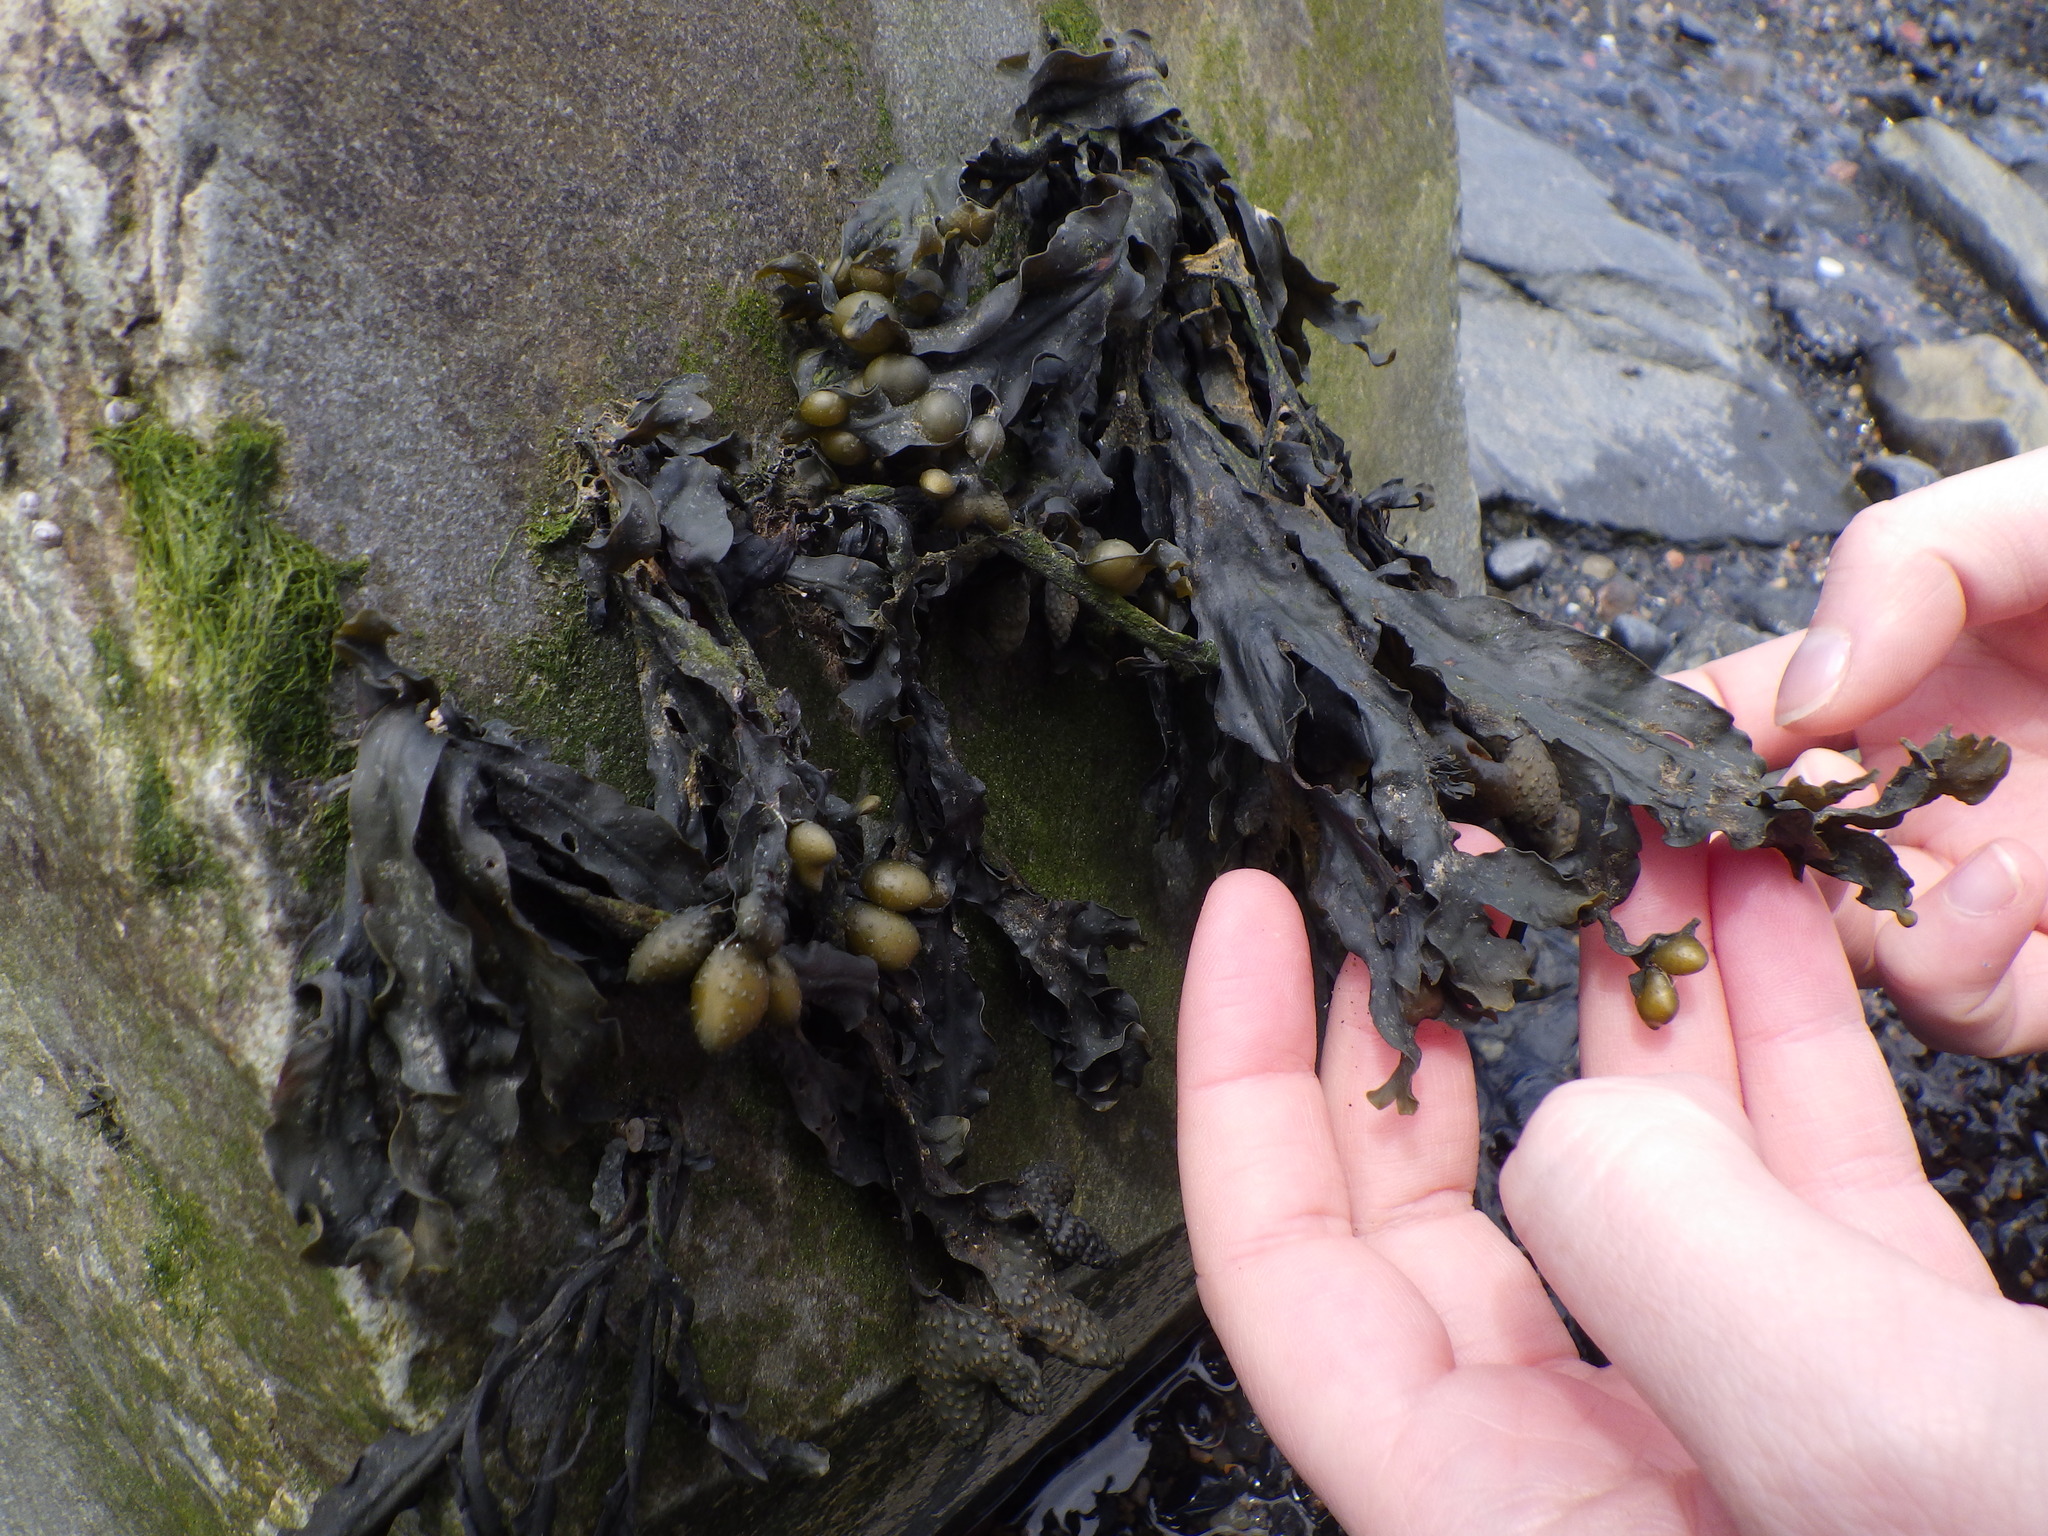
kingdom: Chromista
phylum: Ochrophyta
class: Phaeophyceae
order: Fucales
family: Fucaceae
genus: Fucus
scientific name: Fucus vesiculosus
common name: Bladder wrack
